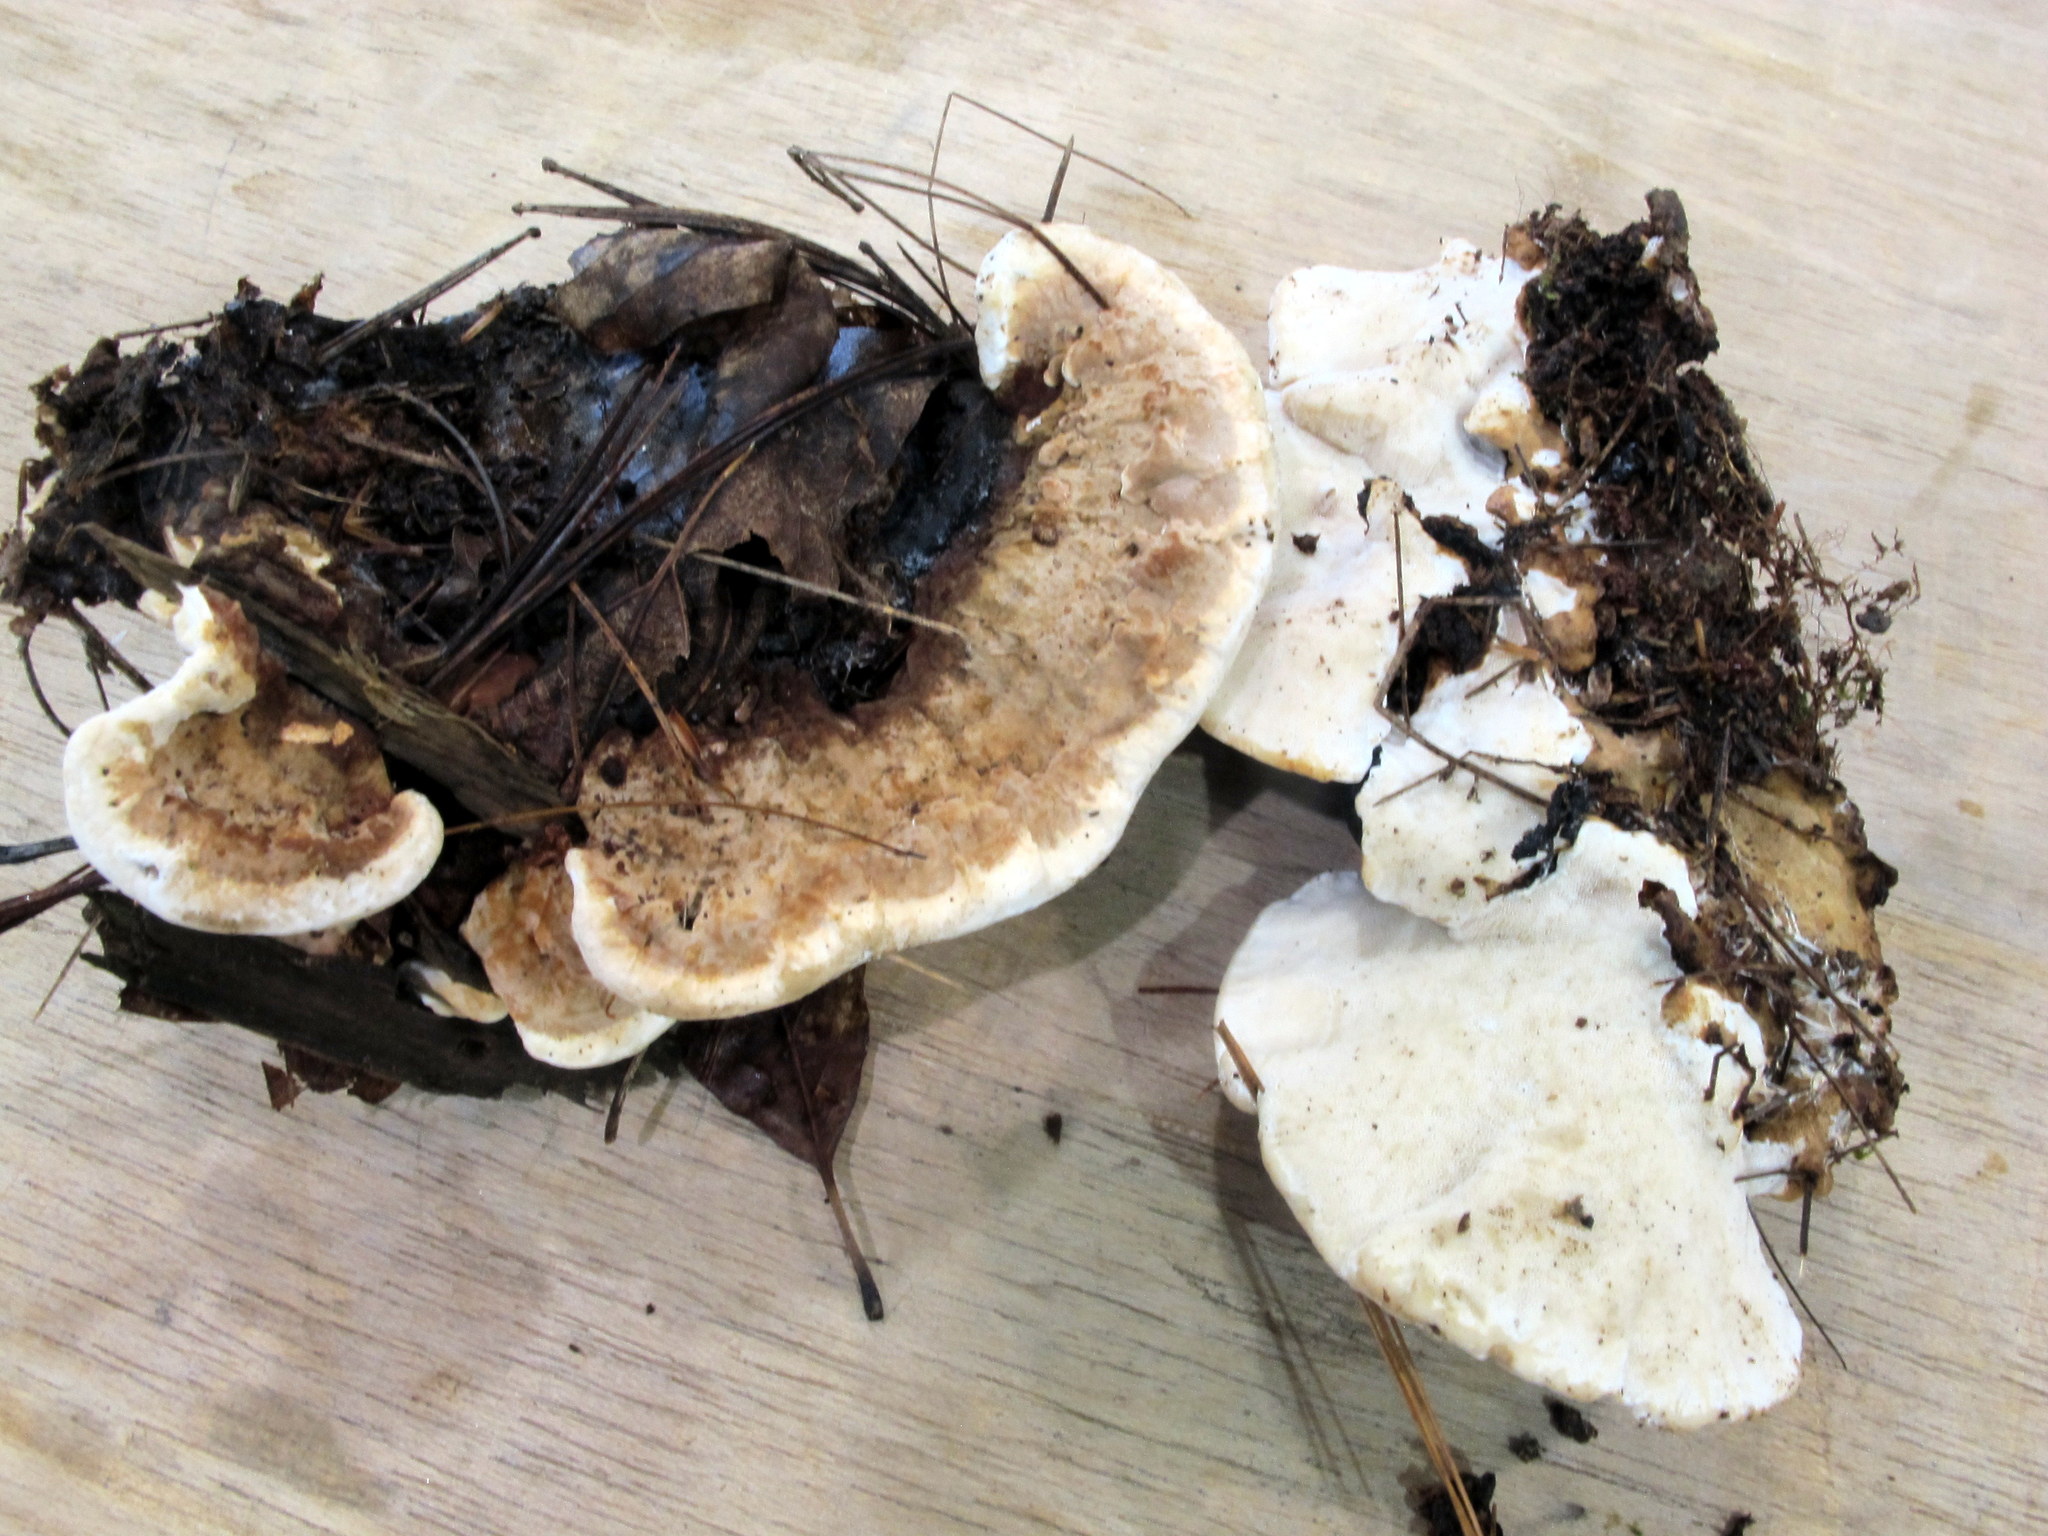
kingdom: Fungi
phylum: Basidiomycota
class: Agaricomycetes
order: Russulales
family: Bondarzewiaceae
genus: Heterobasidion
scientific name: Heterobasidion annosum
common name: Root rot
